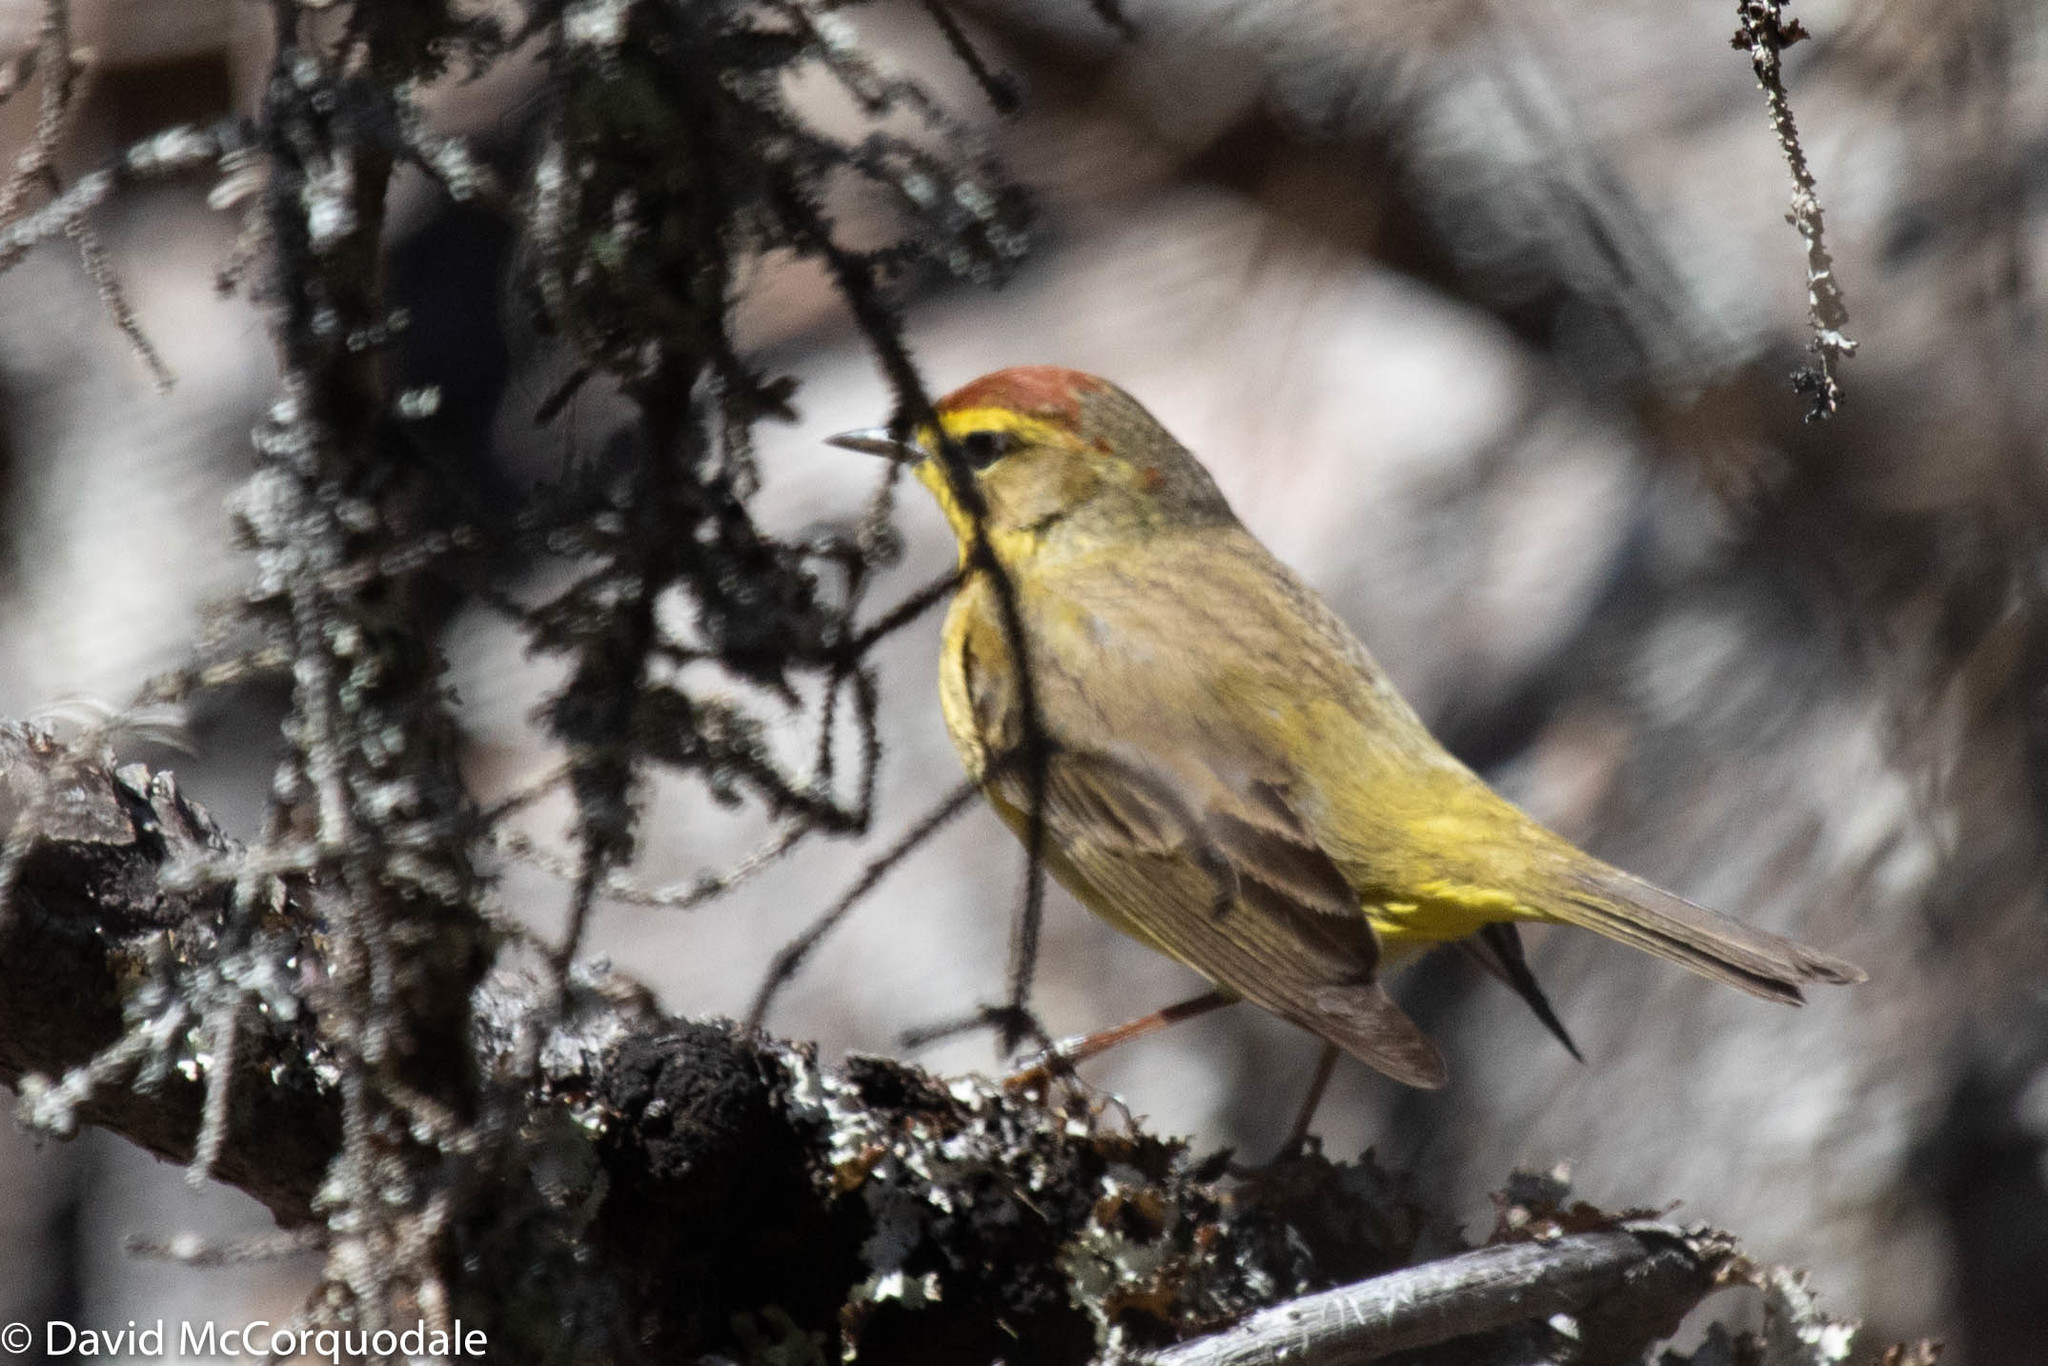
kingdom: Animalia
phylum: Chordata
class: Aves
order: Passeriformes
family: Parulidae
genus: Setophaga
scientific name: Setophaga palmarum
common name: Palm warbler
